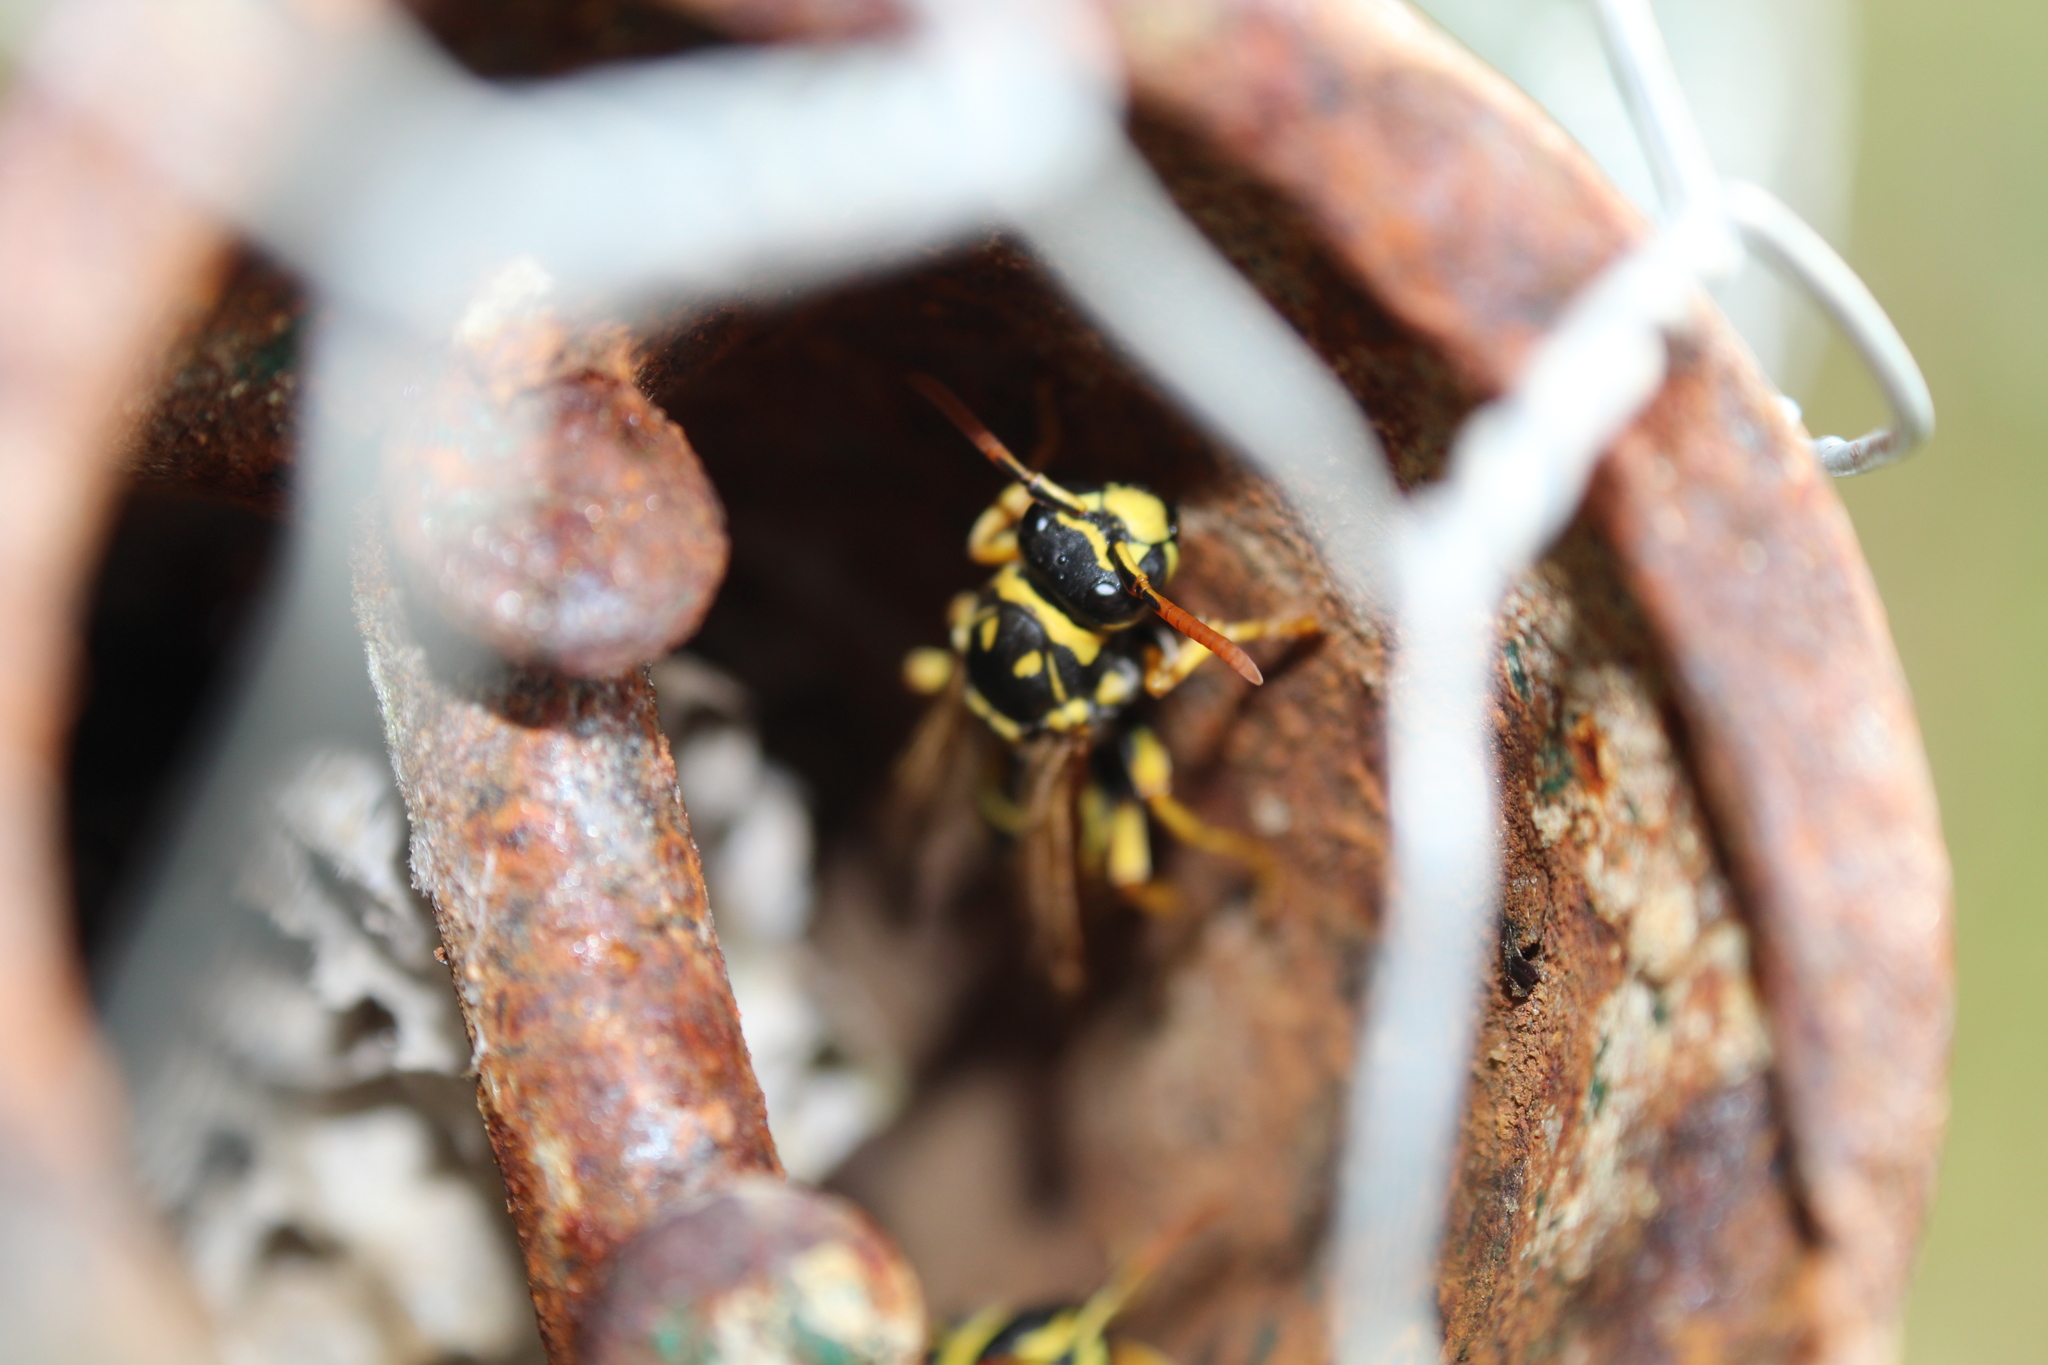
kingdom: Animalia
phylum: Arthropoda
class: Insecta
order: Hymenoptera
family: Eumenidae
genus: Polistes
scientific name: Polistes dominula
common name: Paper wasp
